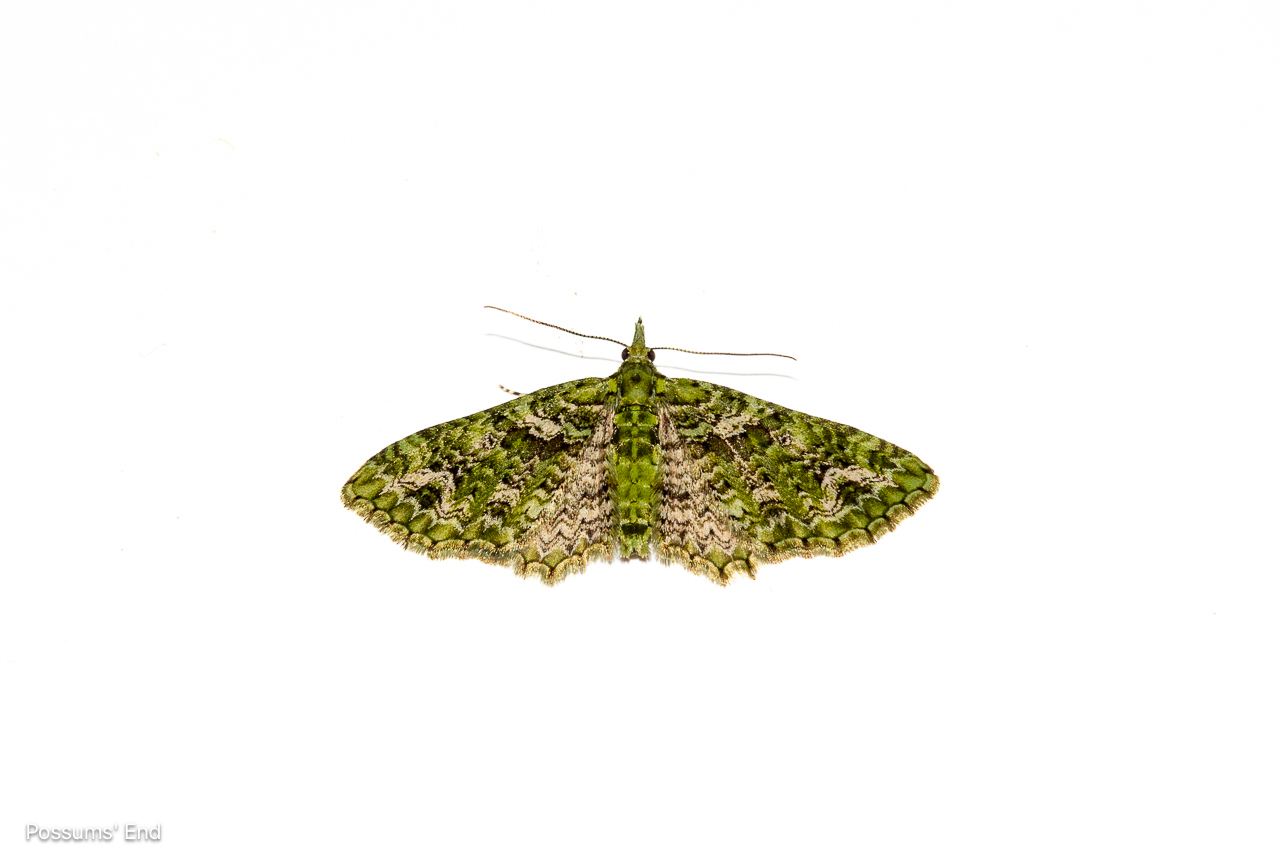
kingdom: Animalia
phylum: Arthropoda
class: Insecta
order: Lepidoptera
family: Geometridae
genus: Pasiphila
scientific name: Pasiphila muscosata
